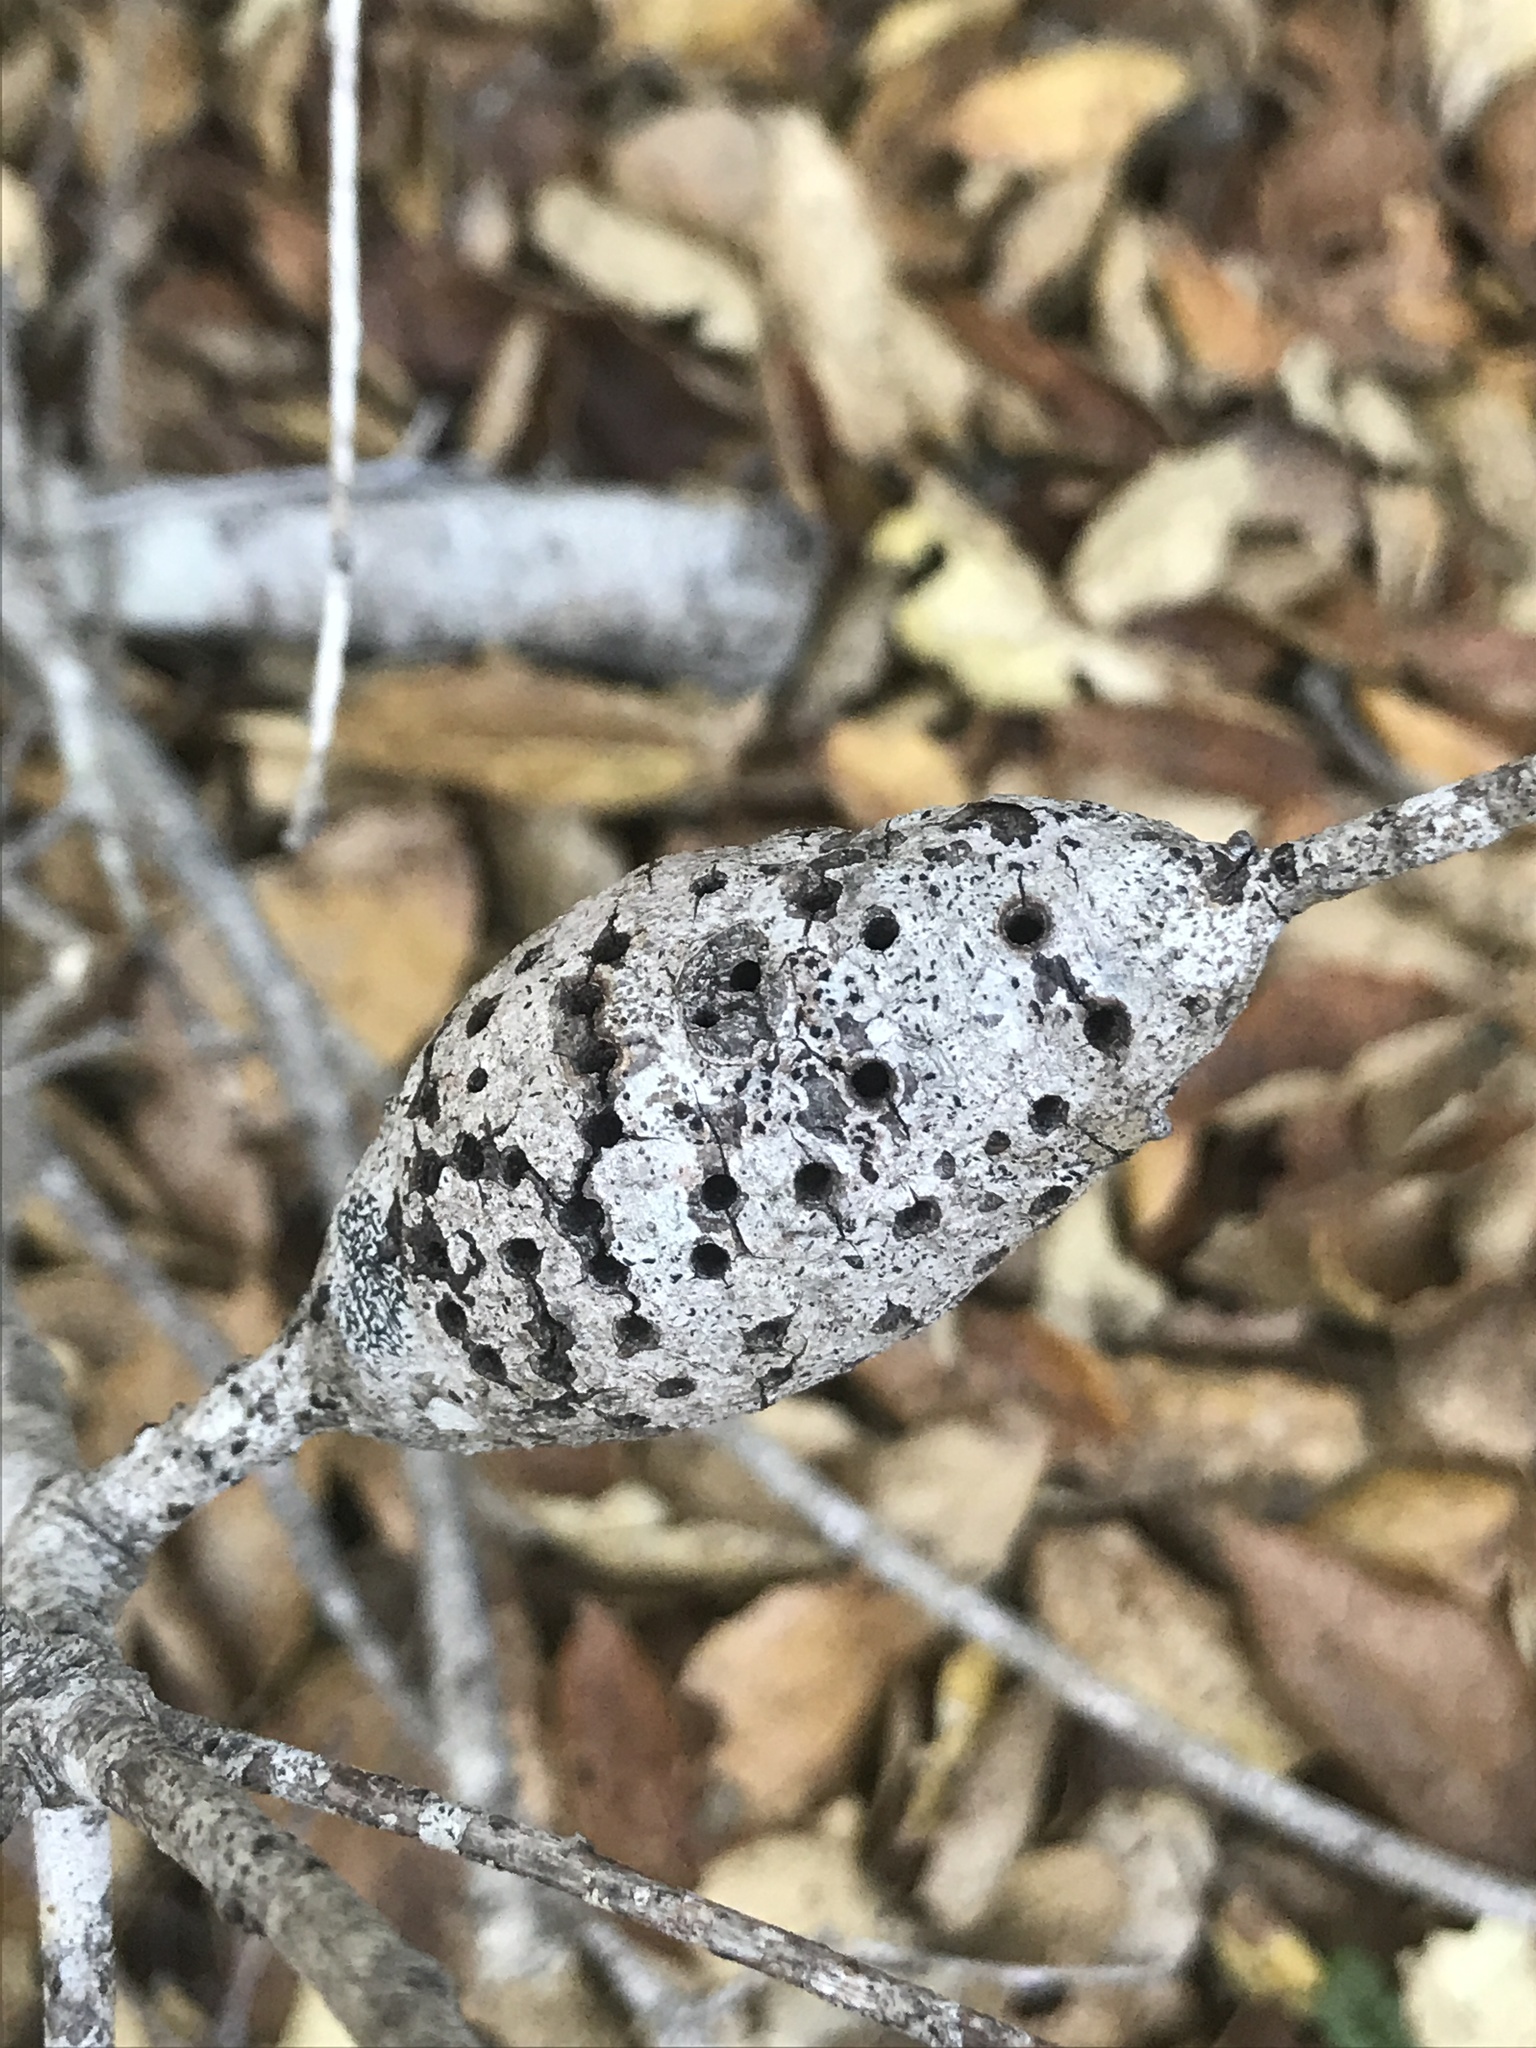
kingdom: Animalia
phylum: Arthropoda
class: Insecta
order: Hymenoptera
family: Cynipidae
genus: Callirhytis
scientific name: Callirhytis
